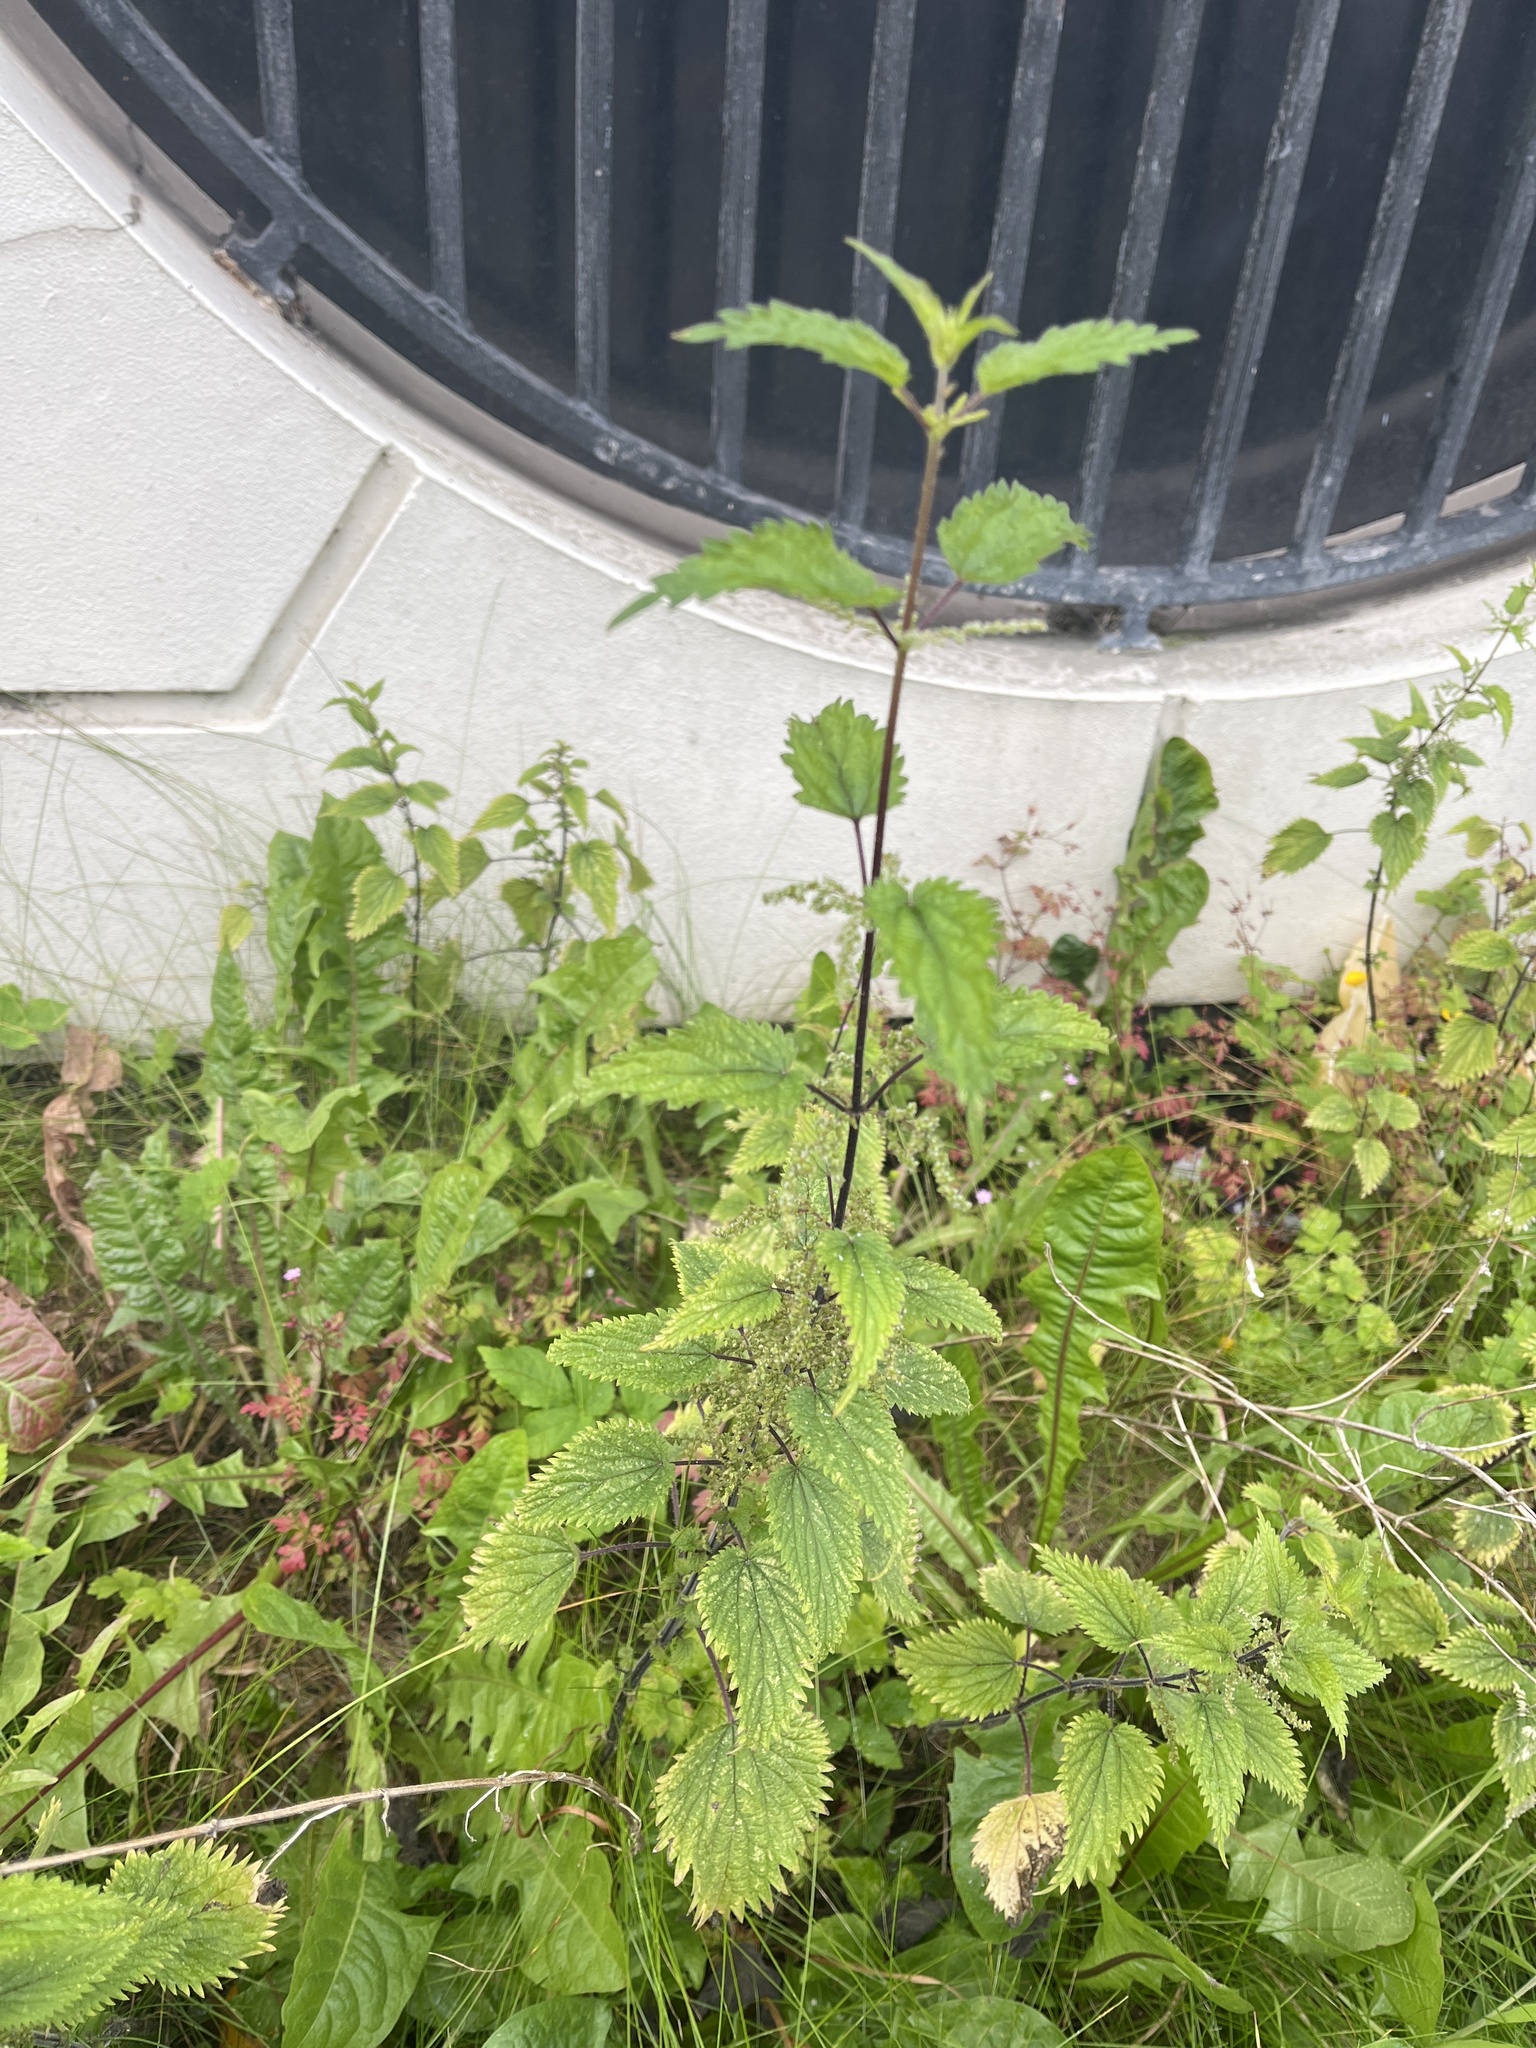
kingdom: Plantae
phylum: Tracheophyta
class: Magnoliopsida
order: Rosales
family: Urticaceae
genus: Urtica
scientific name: Urtica dioica
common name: Common nettle
